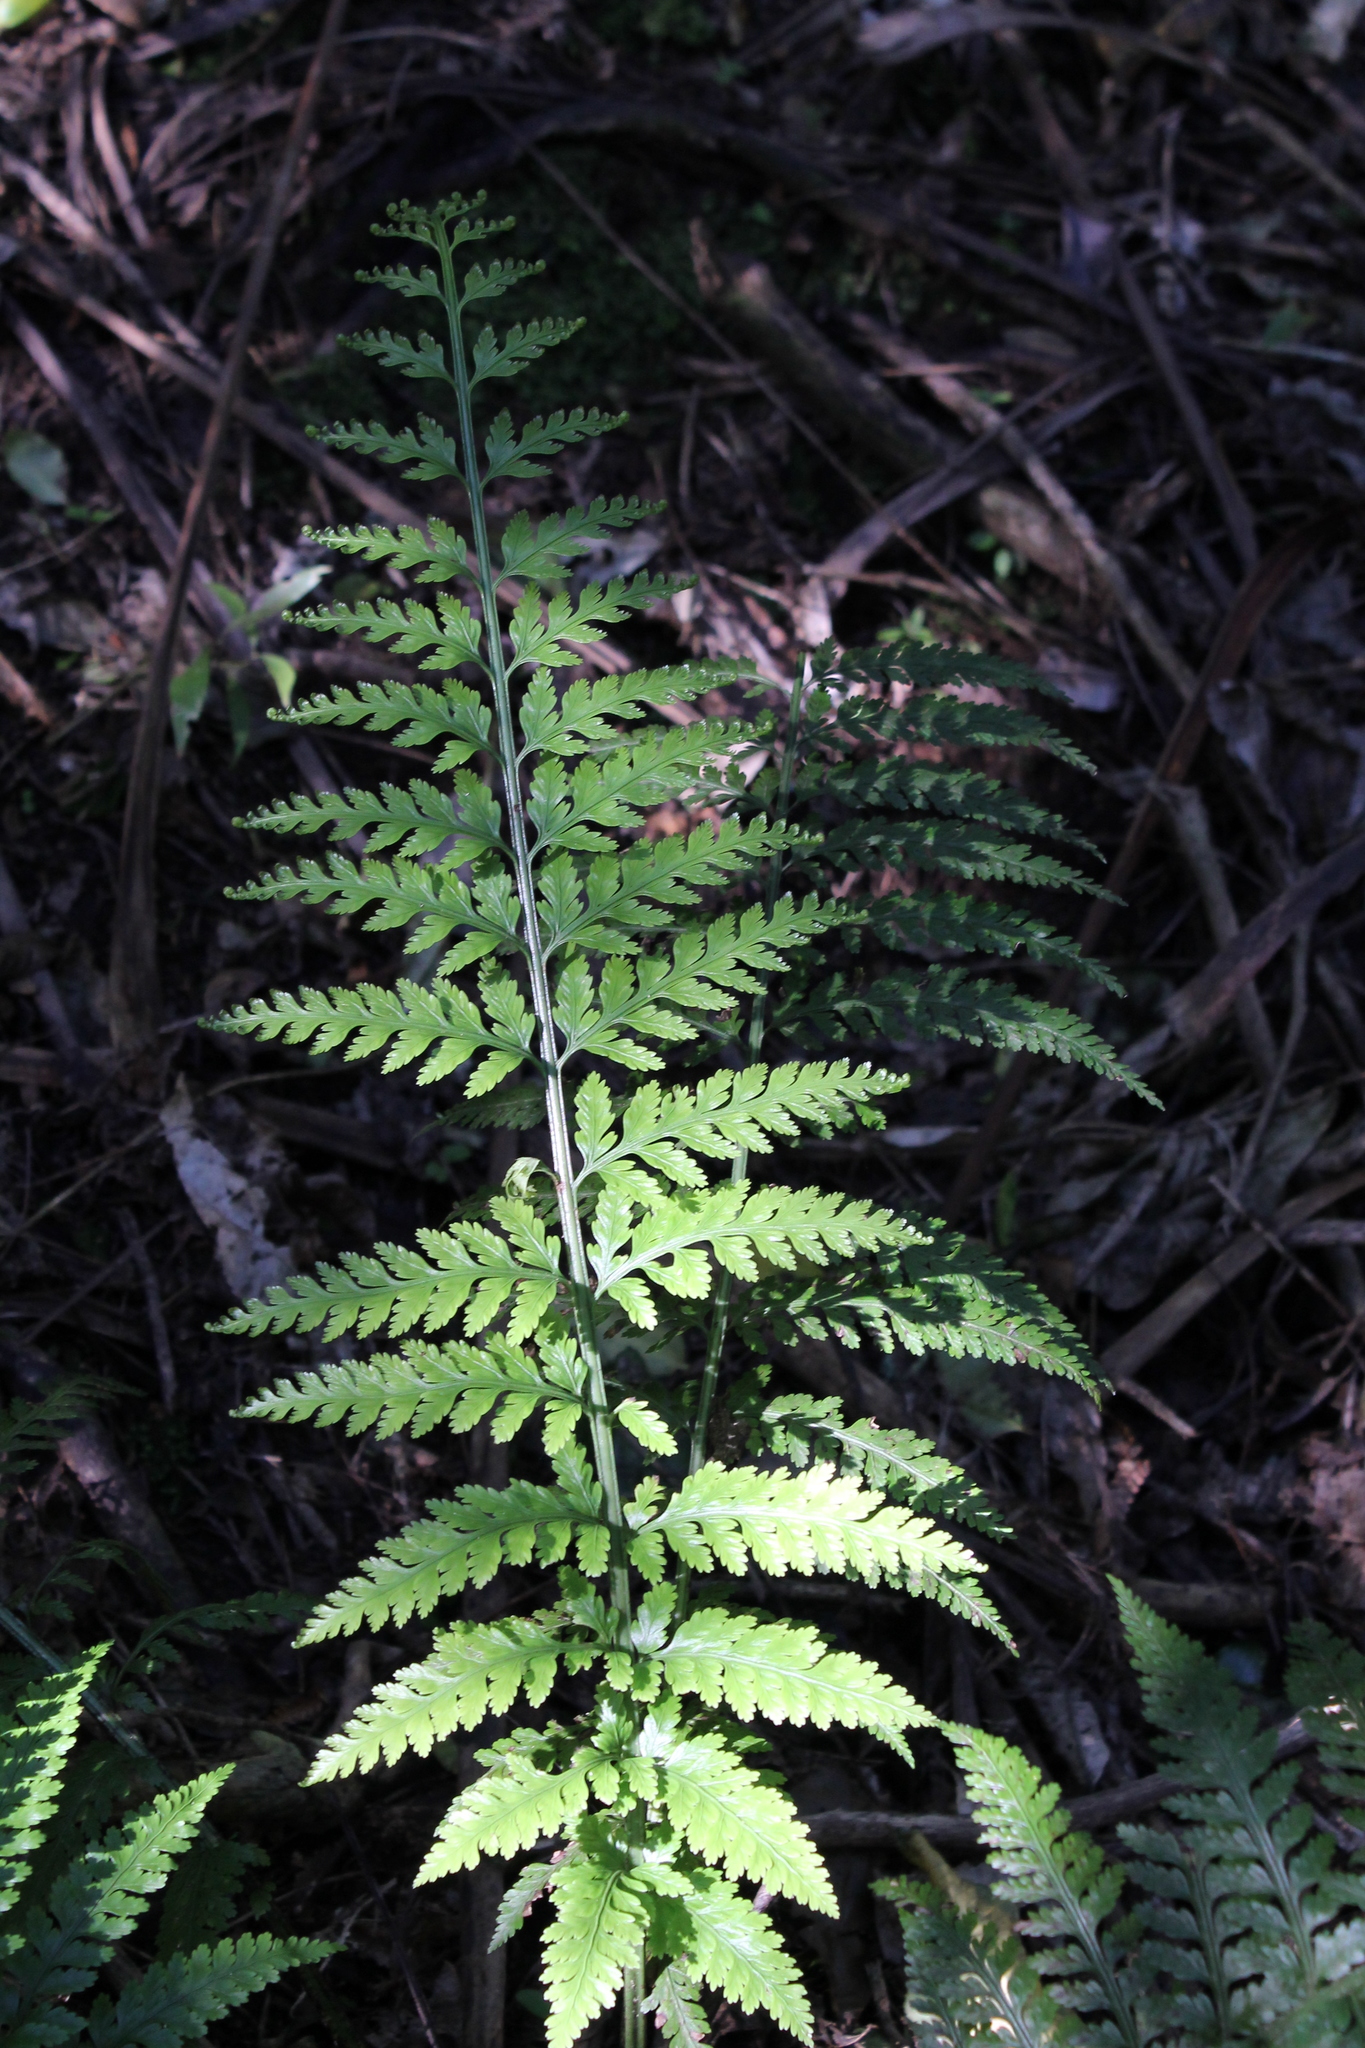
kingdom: Plantae
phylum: Tracheophyta
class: Polypodiopsida
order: Polypodiales
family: Aspleniaceae
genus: Asplenium
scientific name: Asplenium bulbiferum
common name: Mother fern
